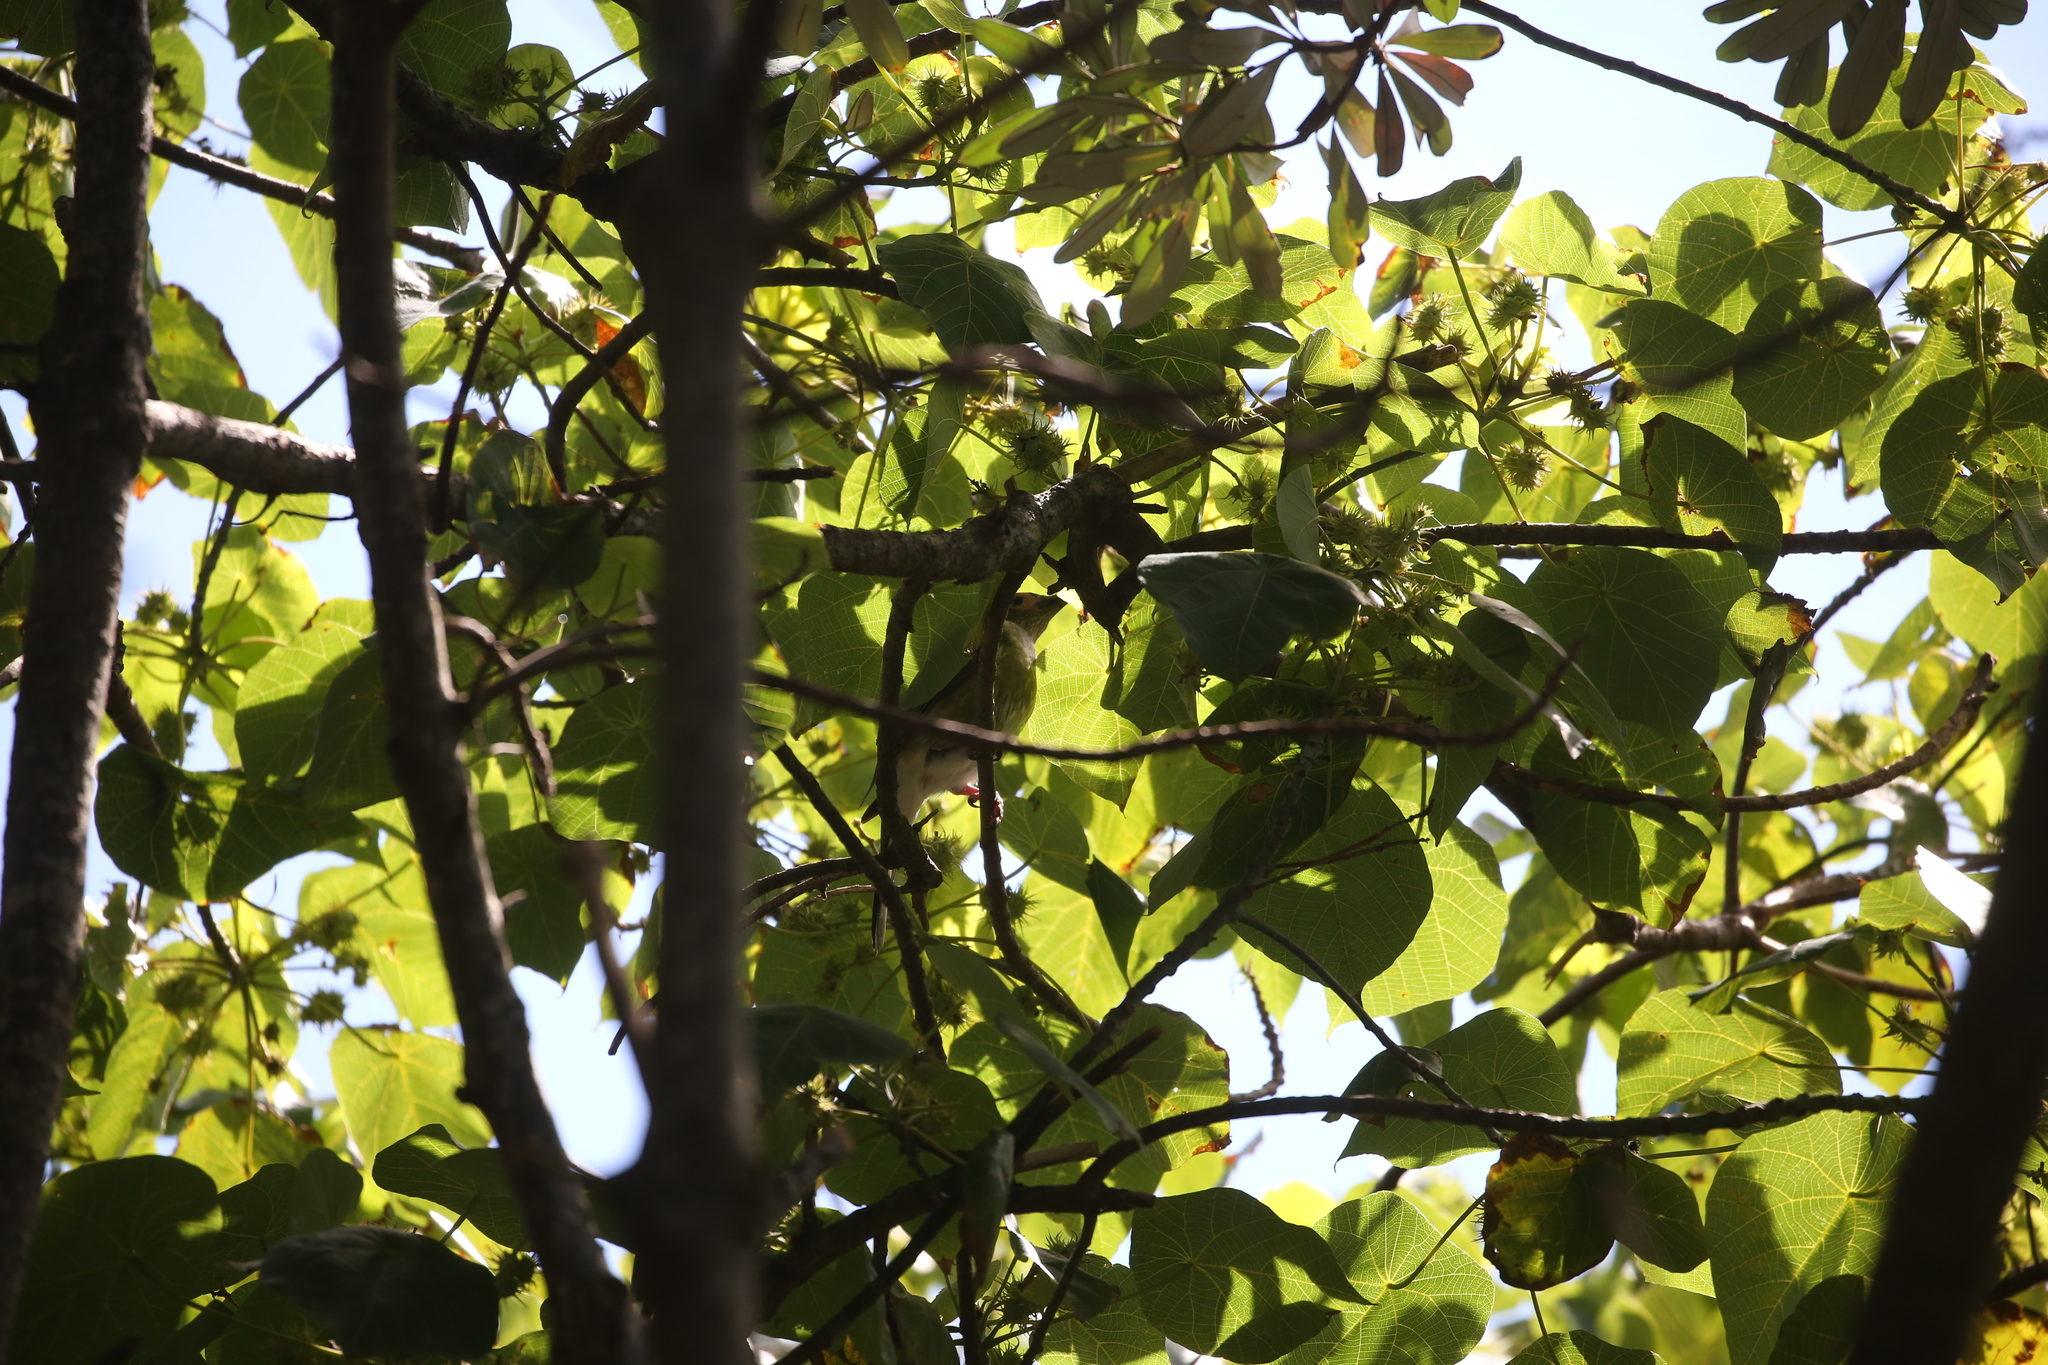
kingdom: Animalia
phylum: Chordata
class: Aves
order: Passeriformes
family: Oriolidae
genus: Sphecotheres
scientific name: Sphecotheres vieilloti
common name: Australasian figbird
